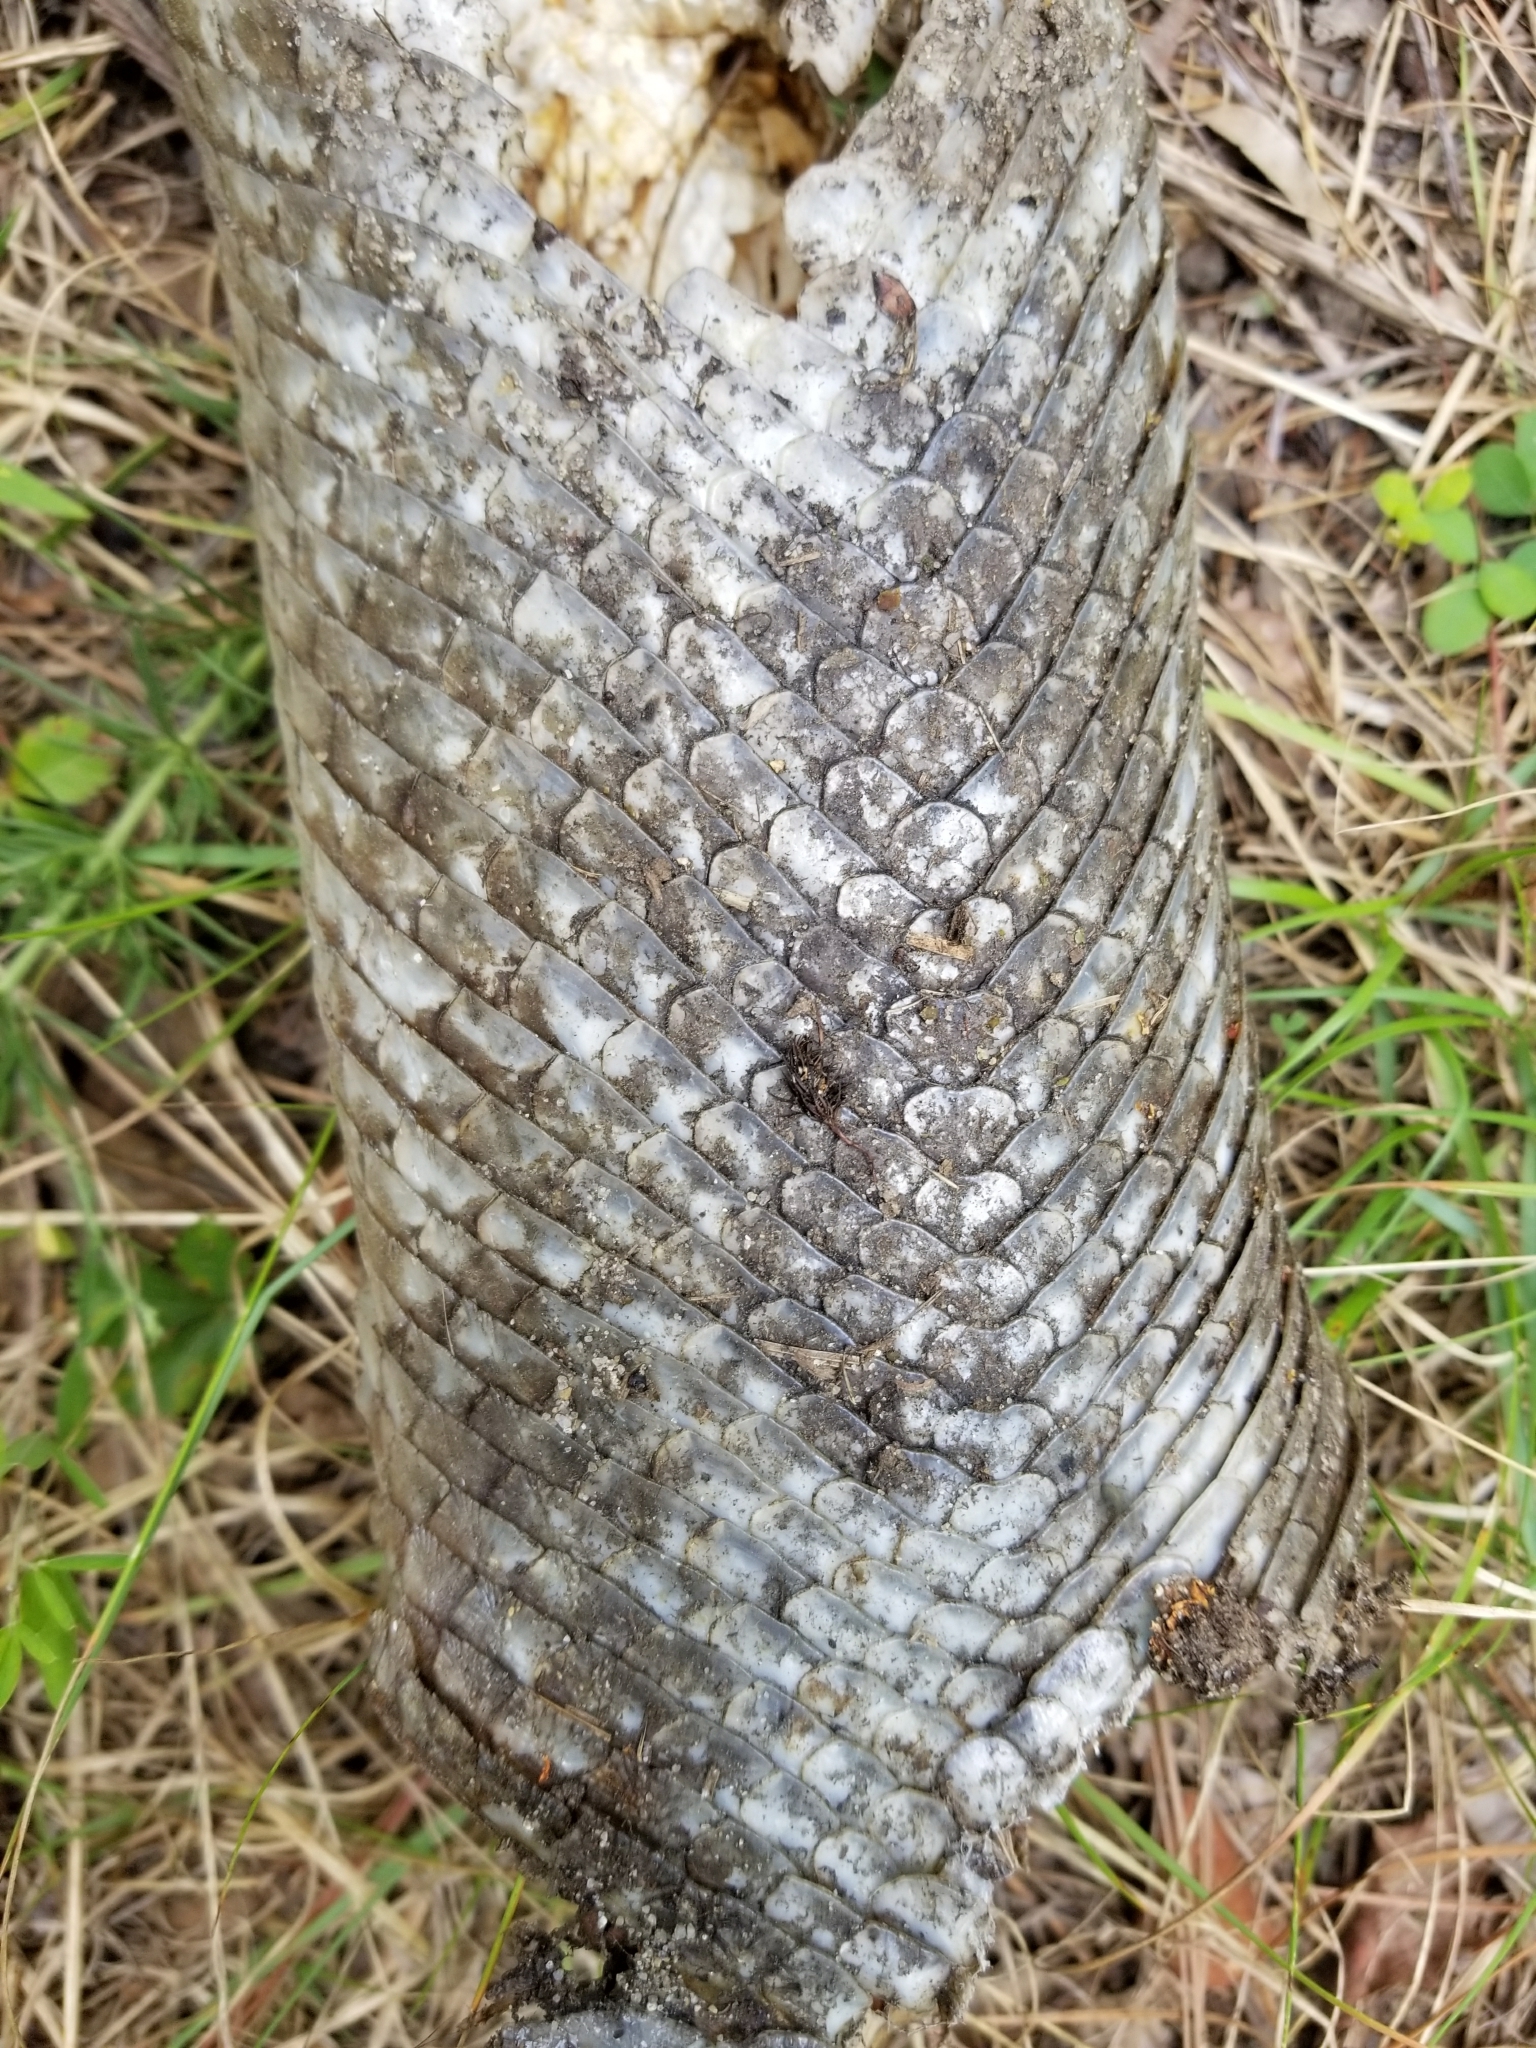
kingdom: Animalia
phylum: Chordata
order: Lepisosteiformes
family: Lepisosteidae
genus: Lepisosteus
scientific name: Lepisosteus osseus
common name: Longnose gar
